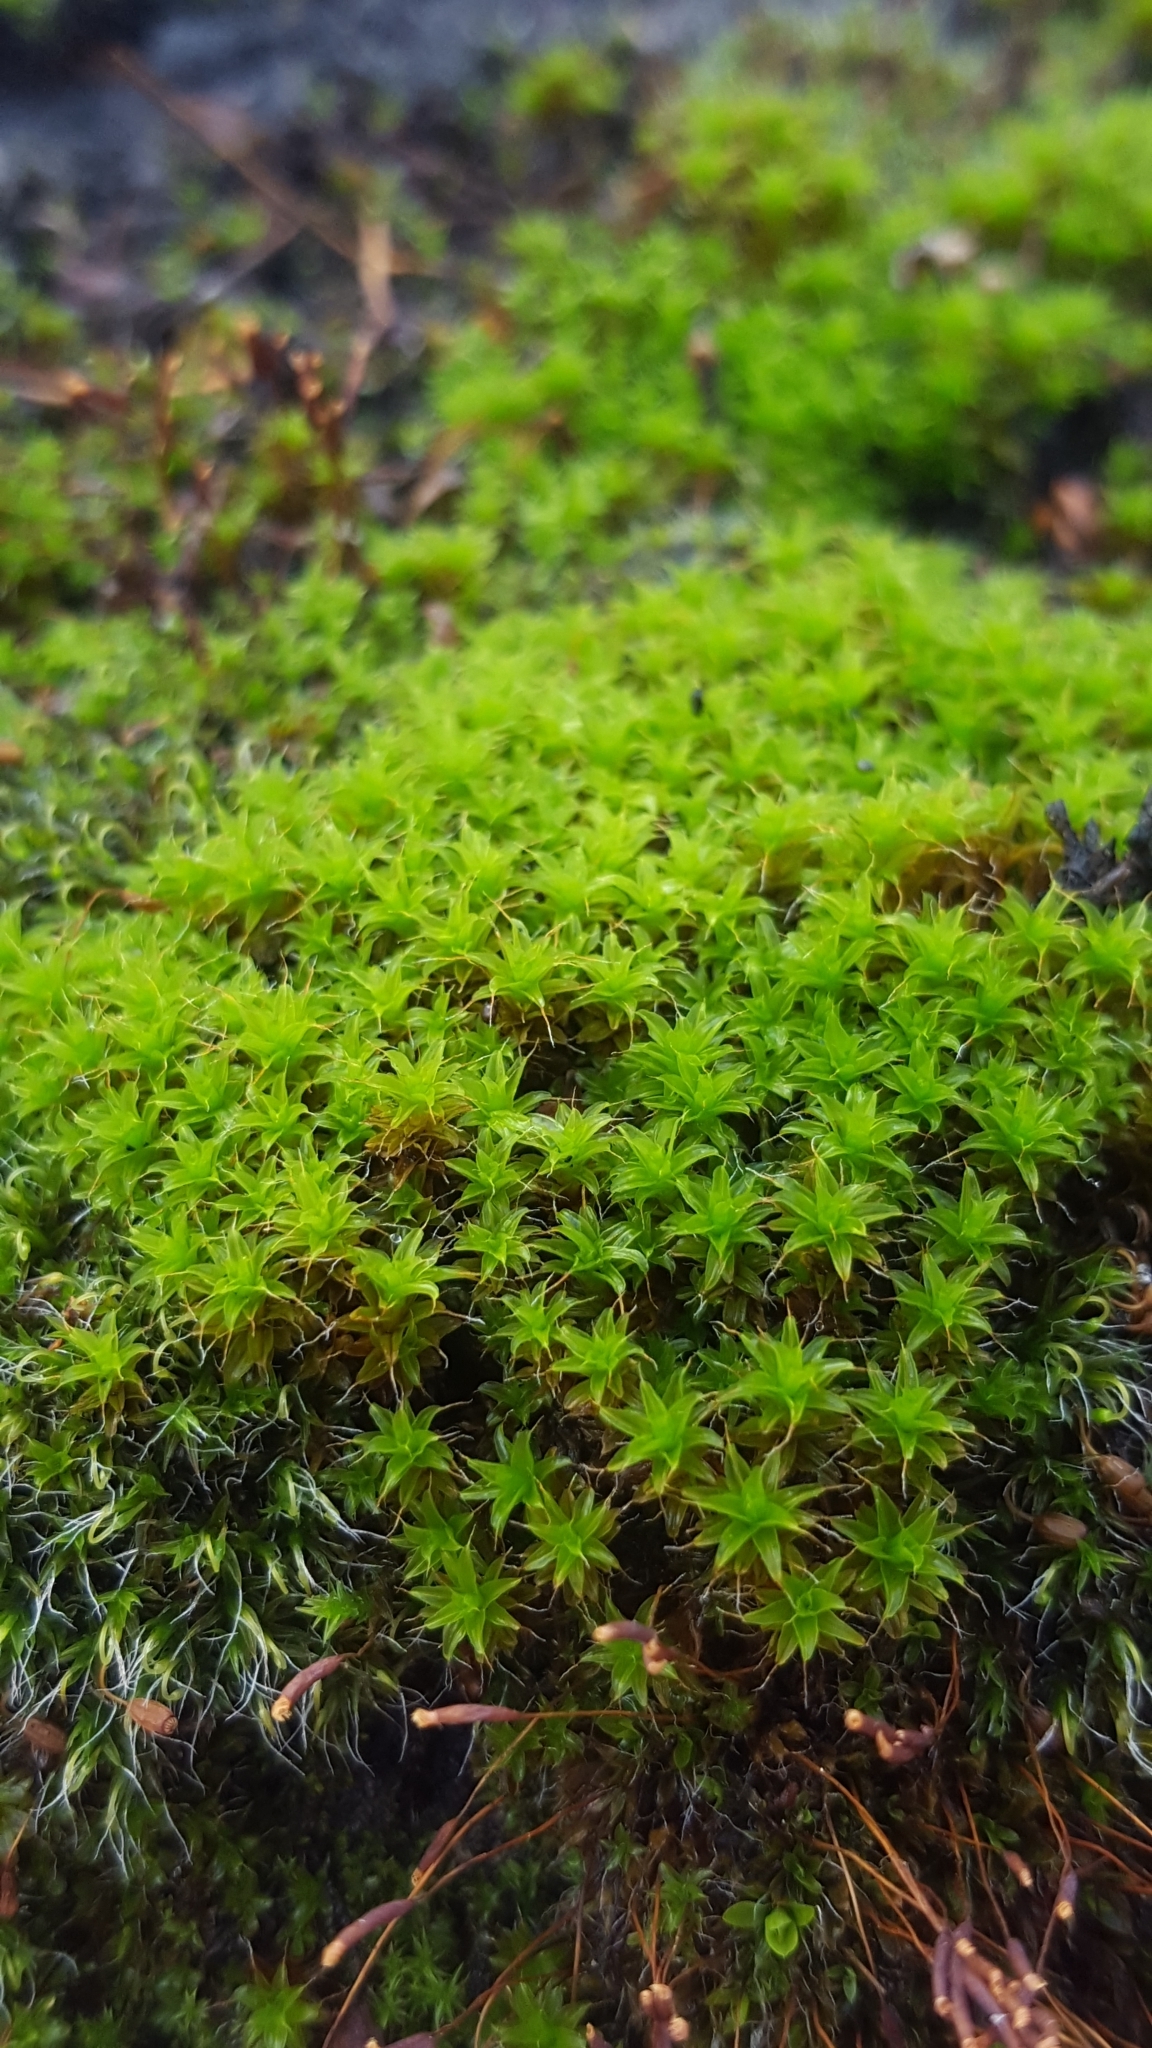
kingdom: Plantae
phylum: Bryophyta
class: Bryopsida
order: Pottiales
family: Pottiaceae
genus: Syntrichia
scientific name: Syntrichia ruralis
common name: Sidewalk screw moss
